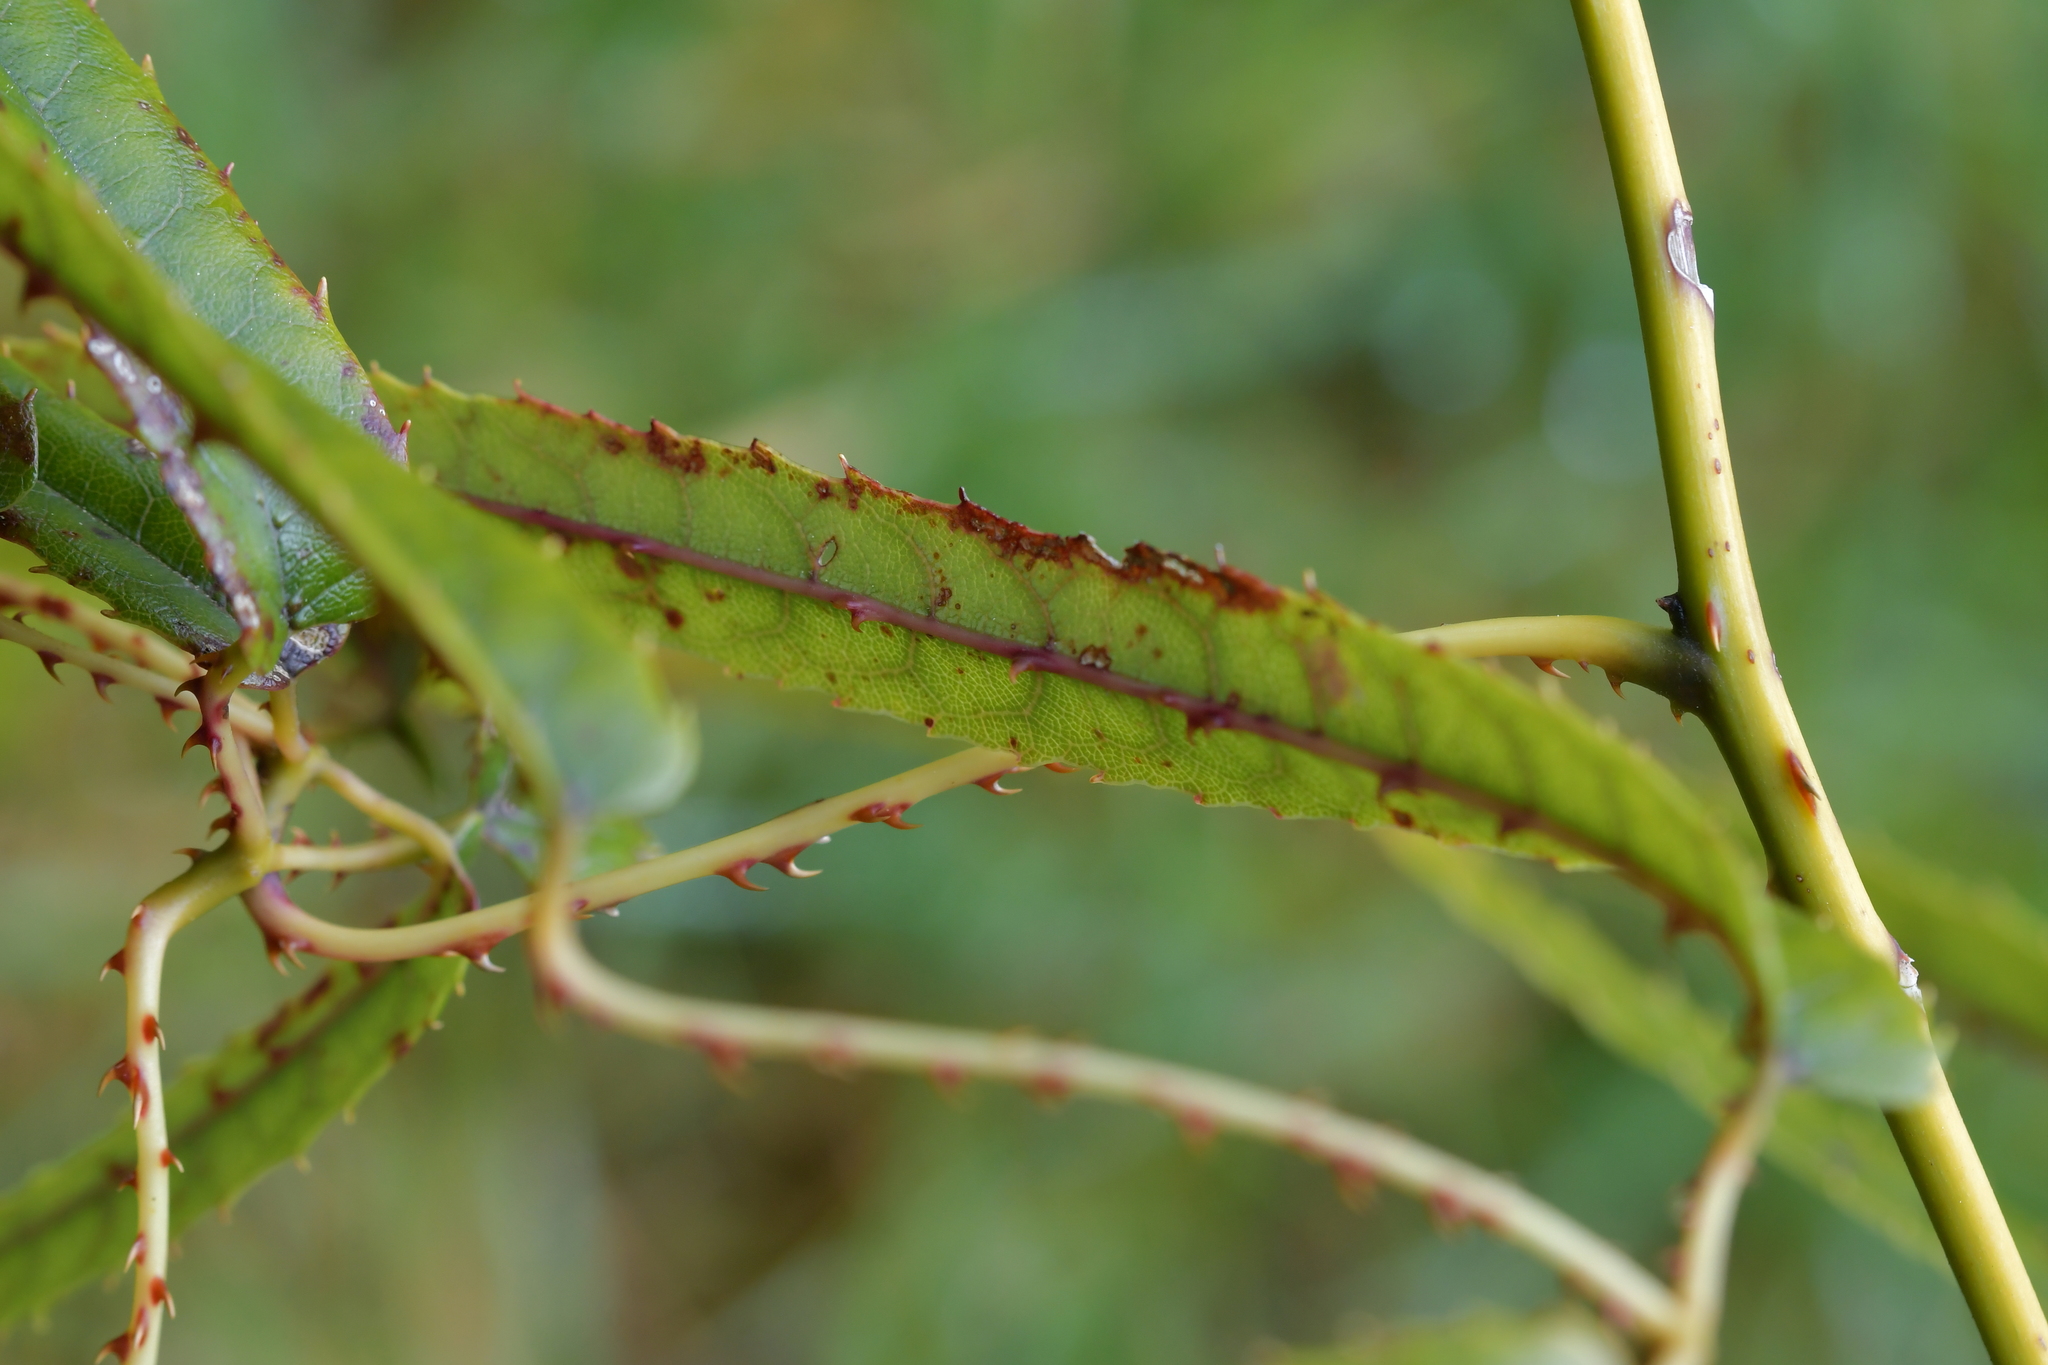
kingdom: Plantae
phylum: Tracheophyta
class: Magnoliopsida
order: Rosales
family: Rosaceae
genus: Rubus
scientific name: Rubus cissoides
